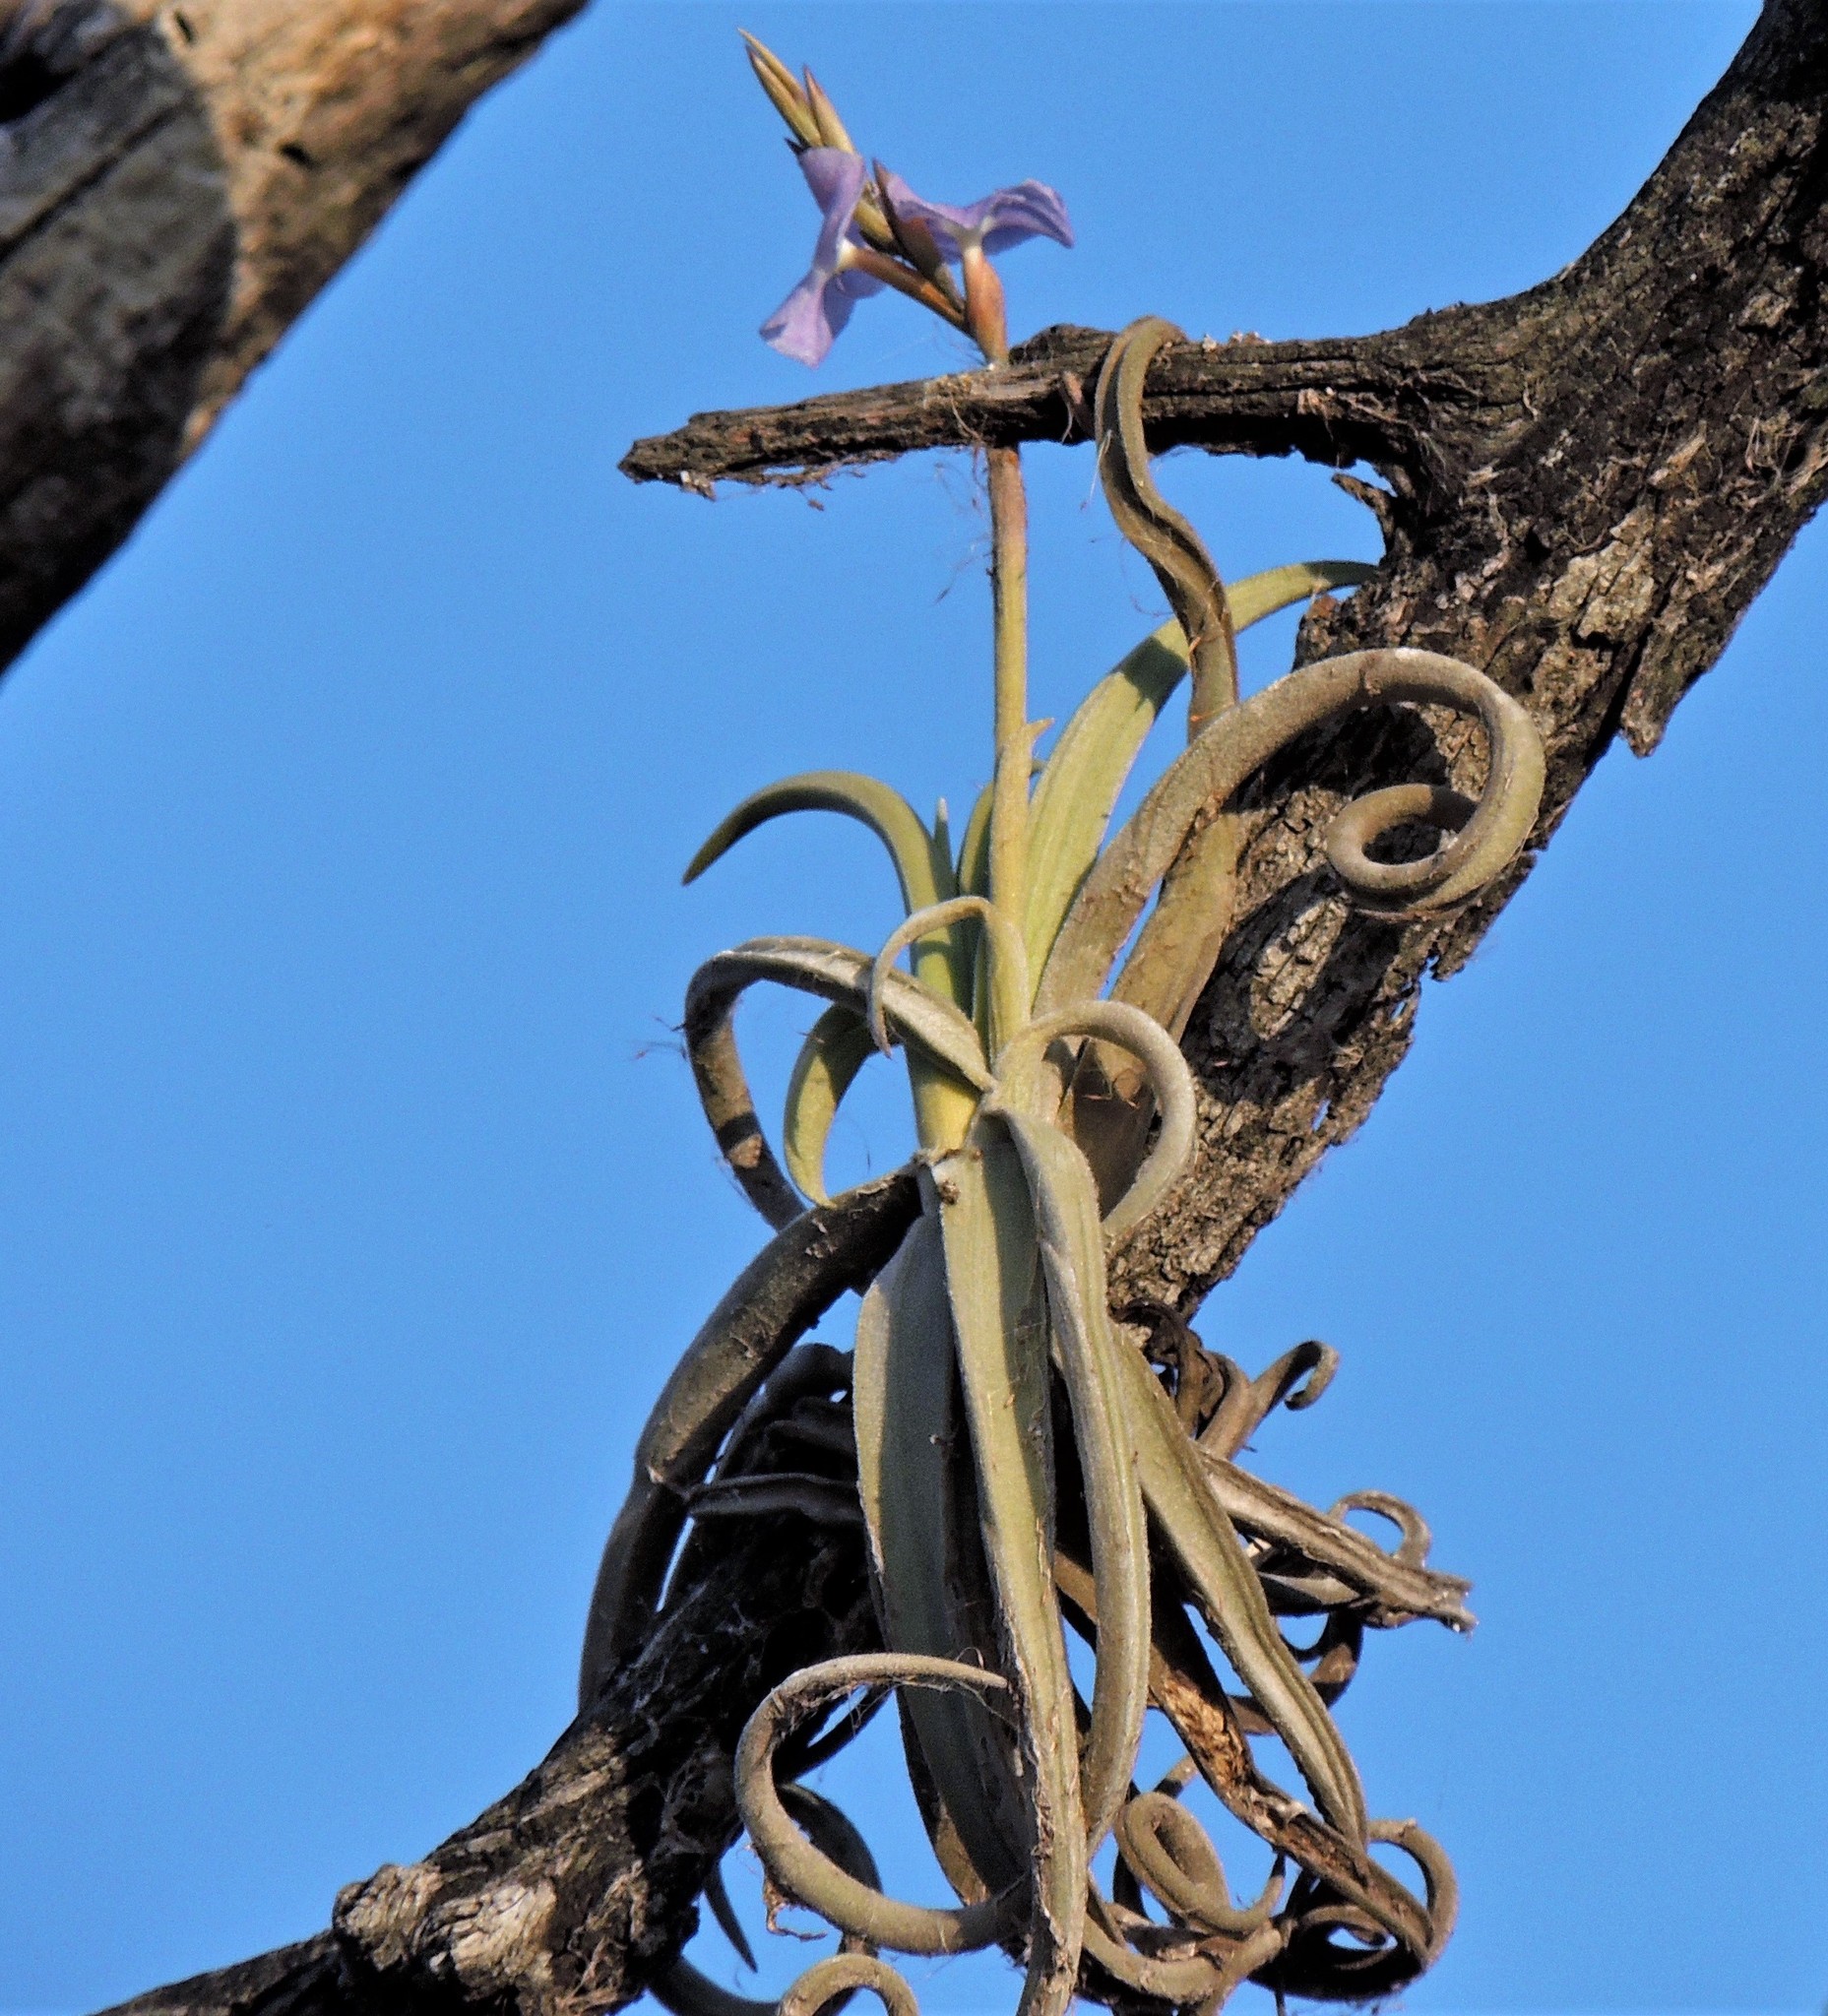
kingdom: Plantae
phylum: Tracheophyta
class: Liliopsida
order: Poales
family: Bromeliaceae
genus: Tillandsia
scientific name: Tillandsia duratii
